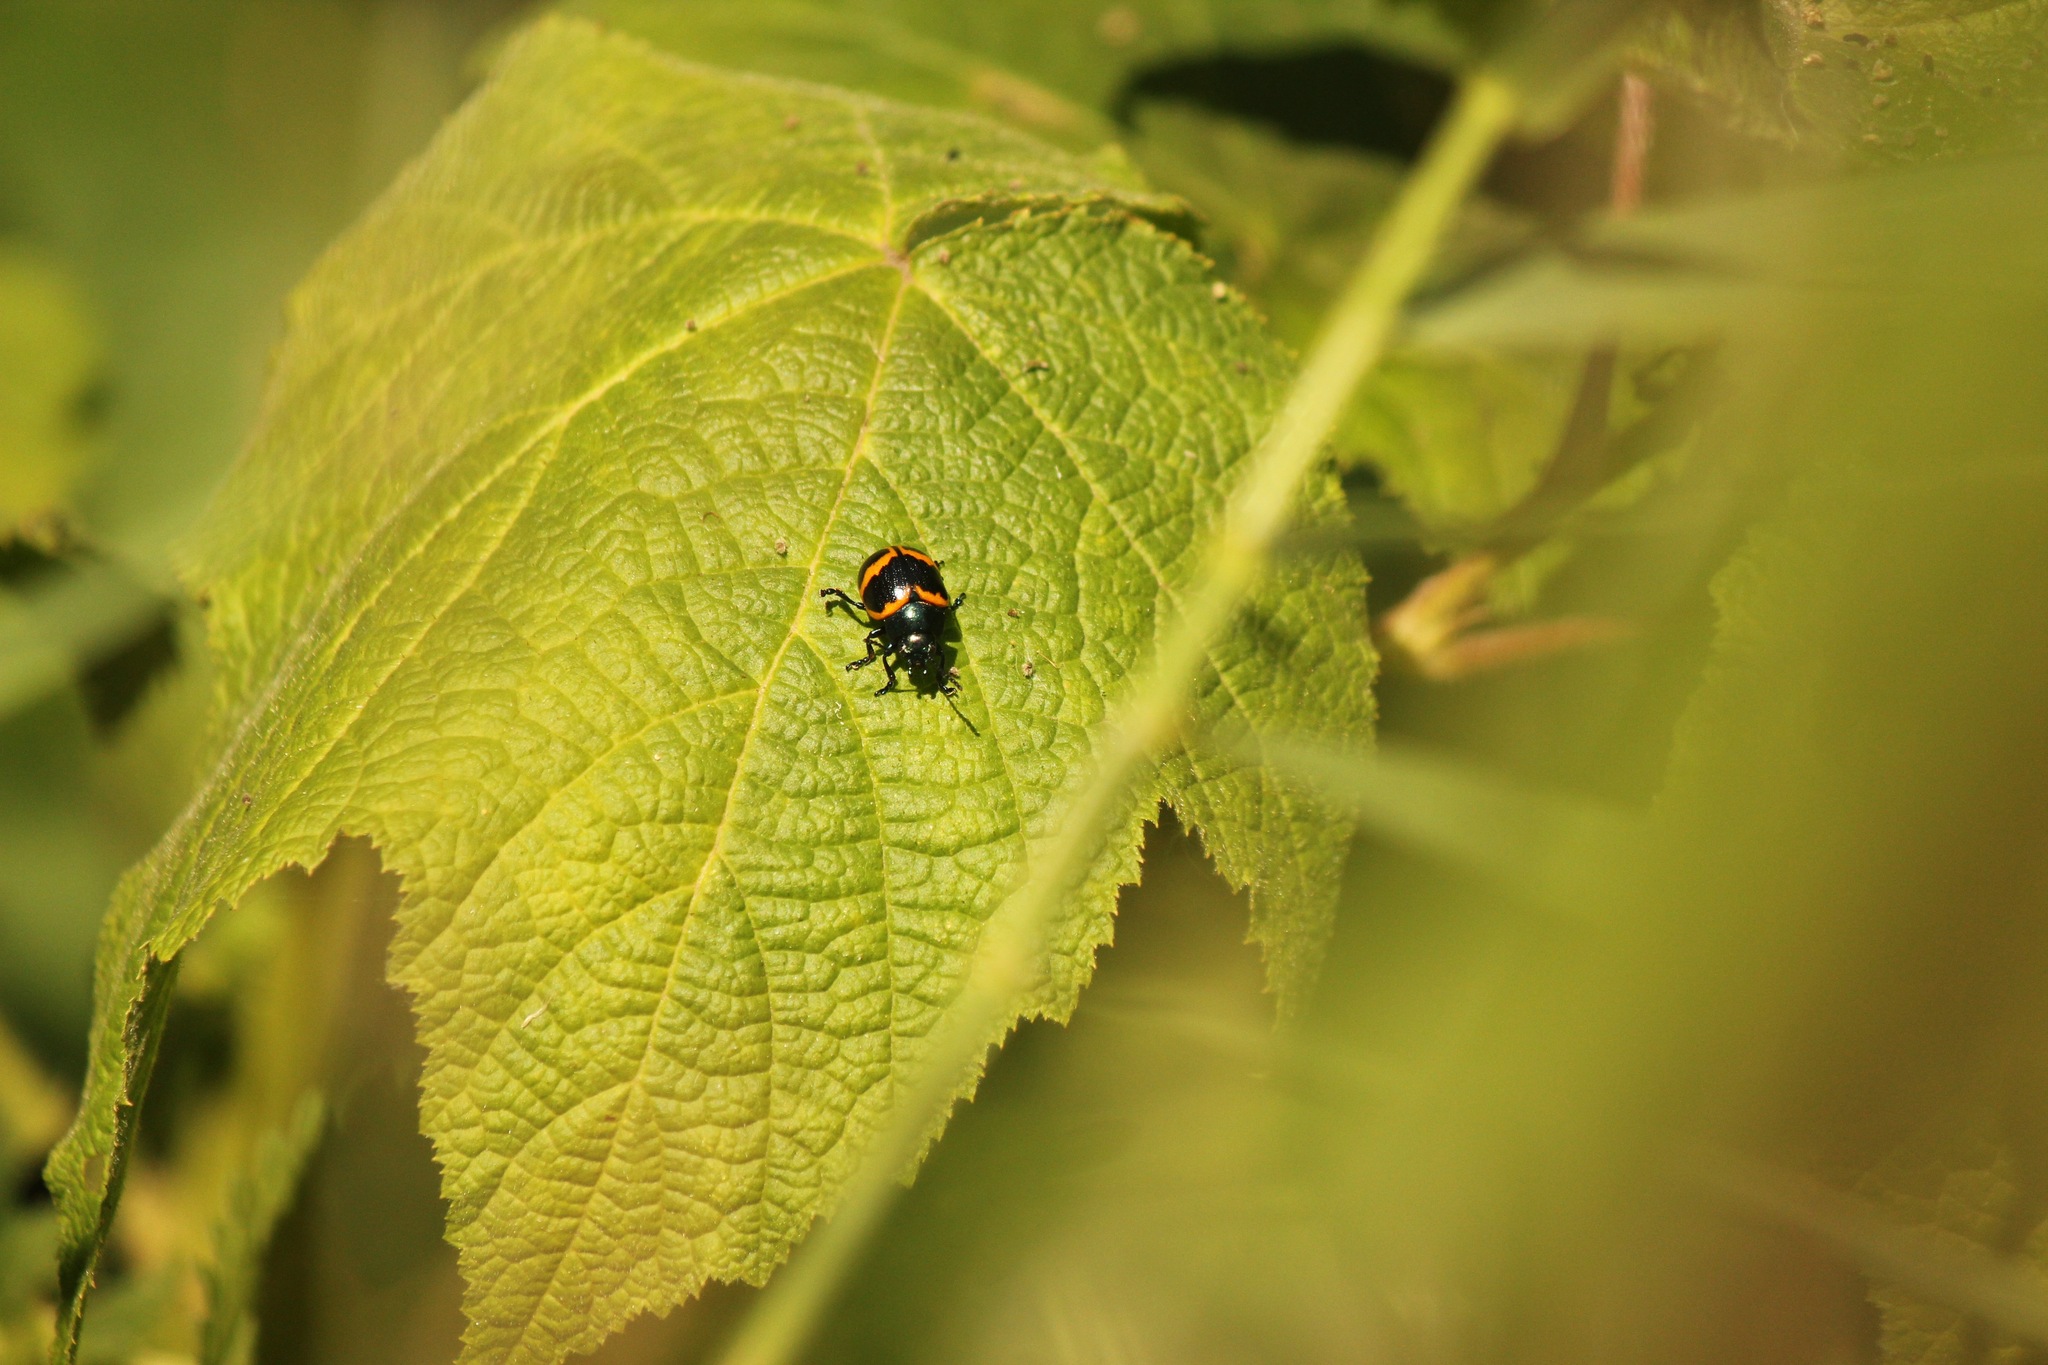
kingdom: Animalia
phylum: Arthropoda
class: Insecta
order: Coleoptera
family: Chrysomelidae
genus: Labidomera
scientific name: Labidomera clivicollis
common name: Swamp milkweed leaf beetle
